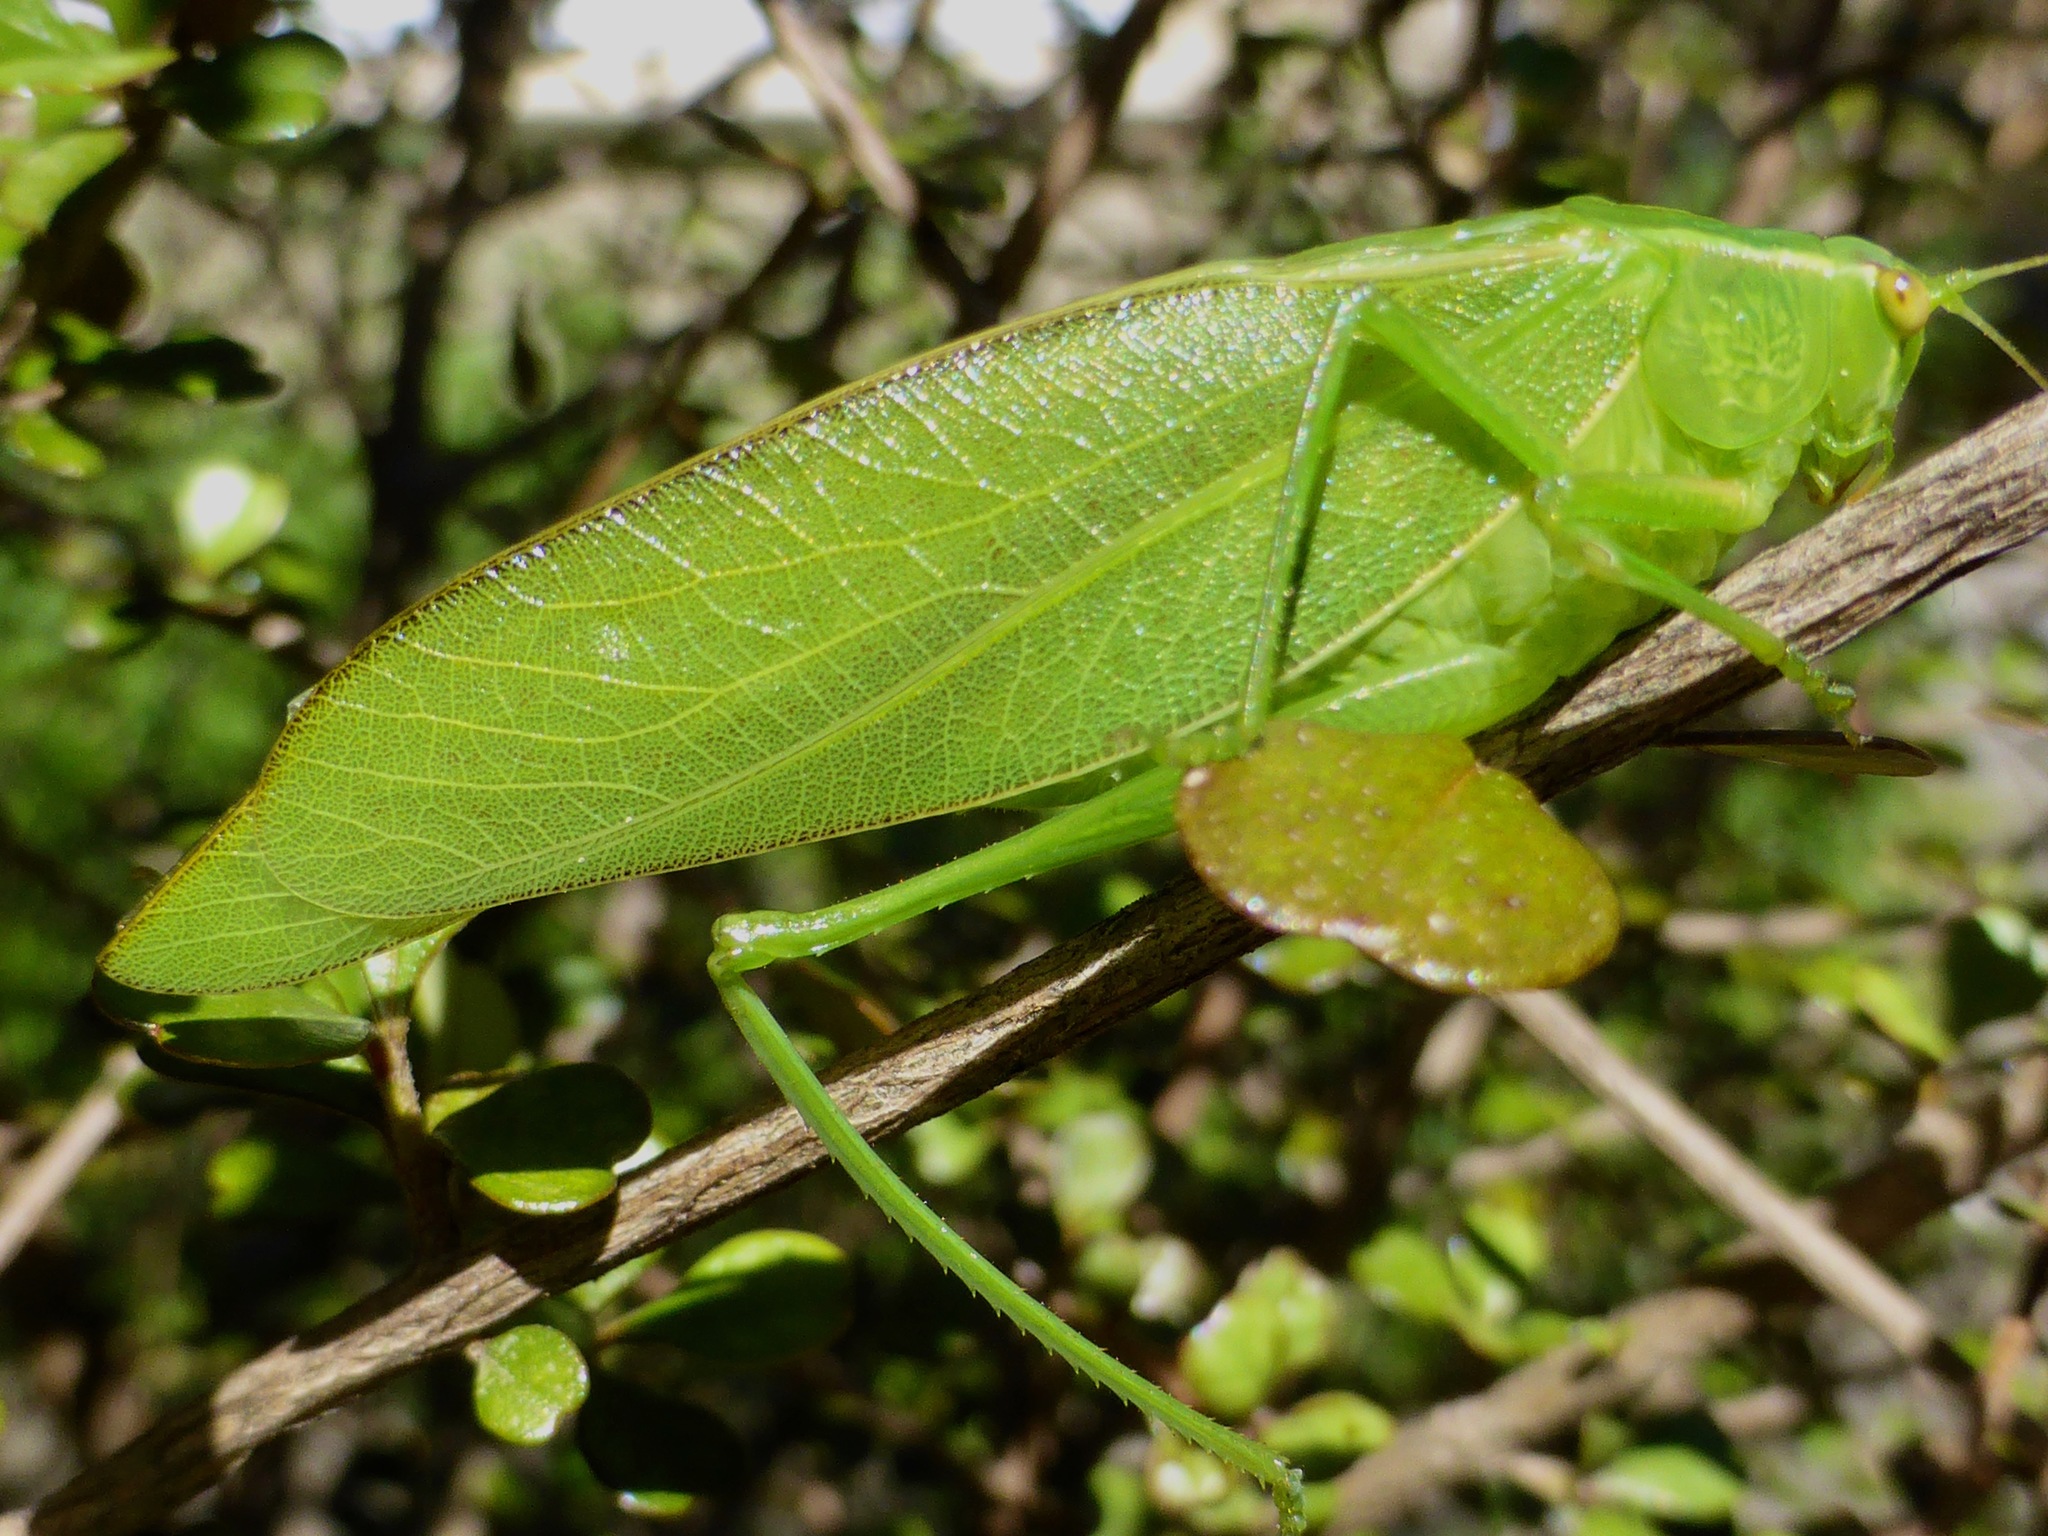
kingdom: Animalia
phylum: Arthropoda
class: Insecta
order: Orthoptera
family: Tettigoniidae
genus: Caedicia
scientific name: Caedicia simplex
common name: Common garden katydid
